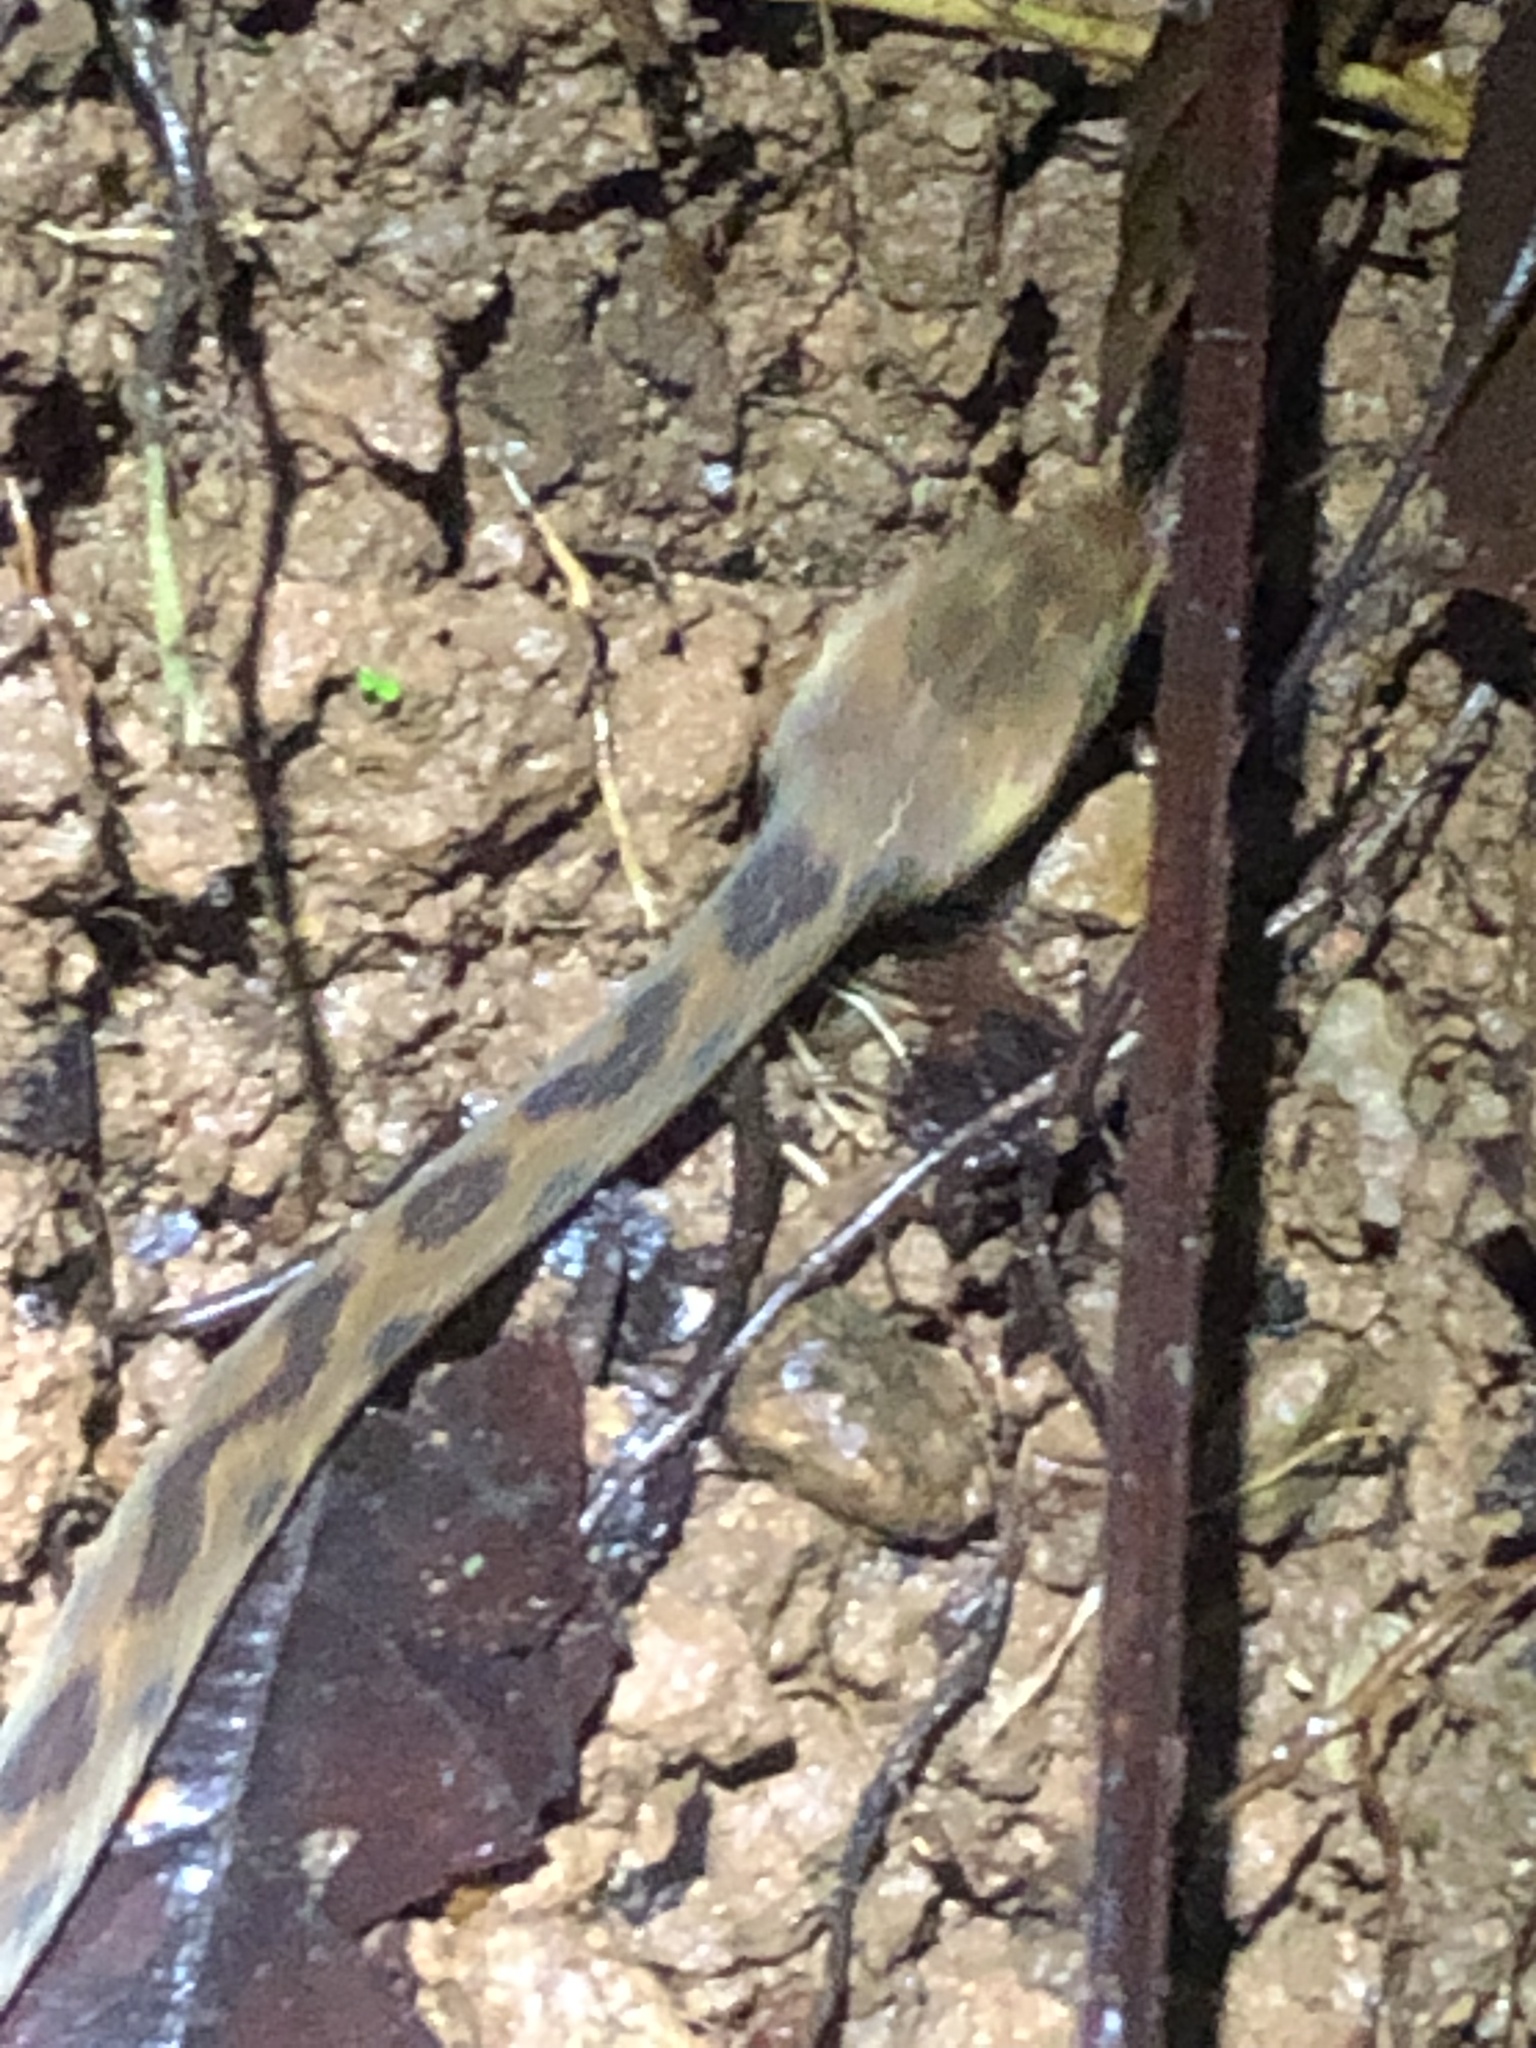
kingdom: Animalia
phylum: Chordata
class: Squamata
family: Colubridae
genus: Leptodeira
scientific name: Leptodeira ornata
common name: Northern cat-eyed snake
